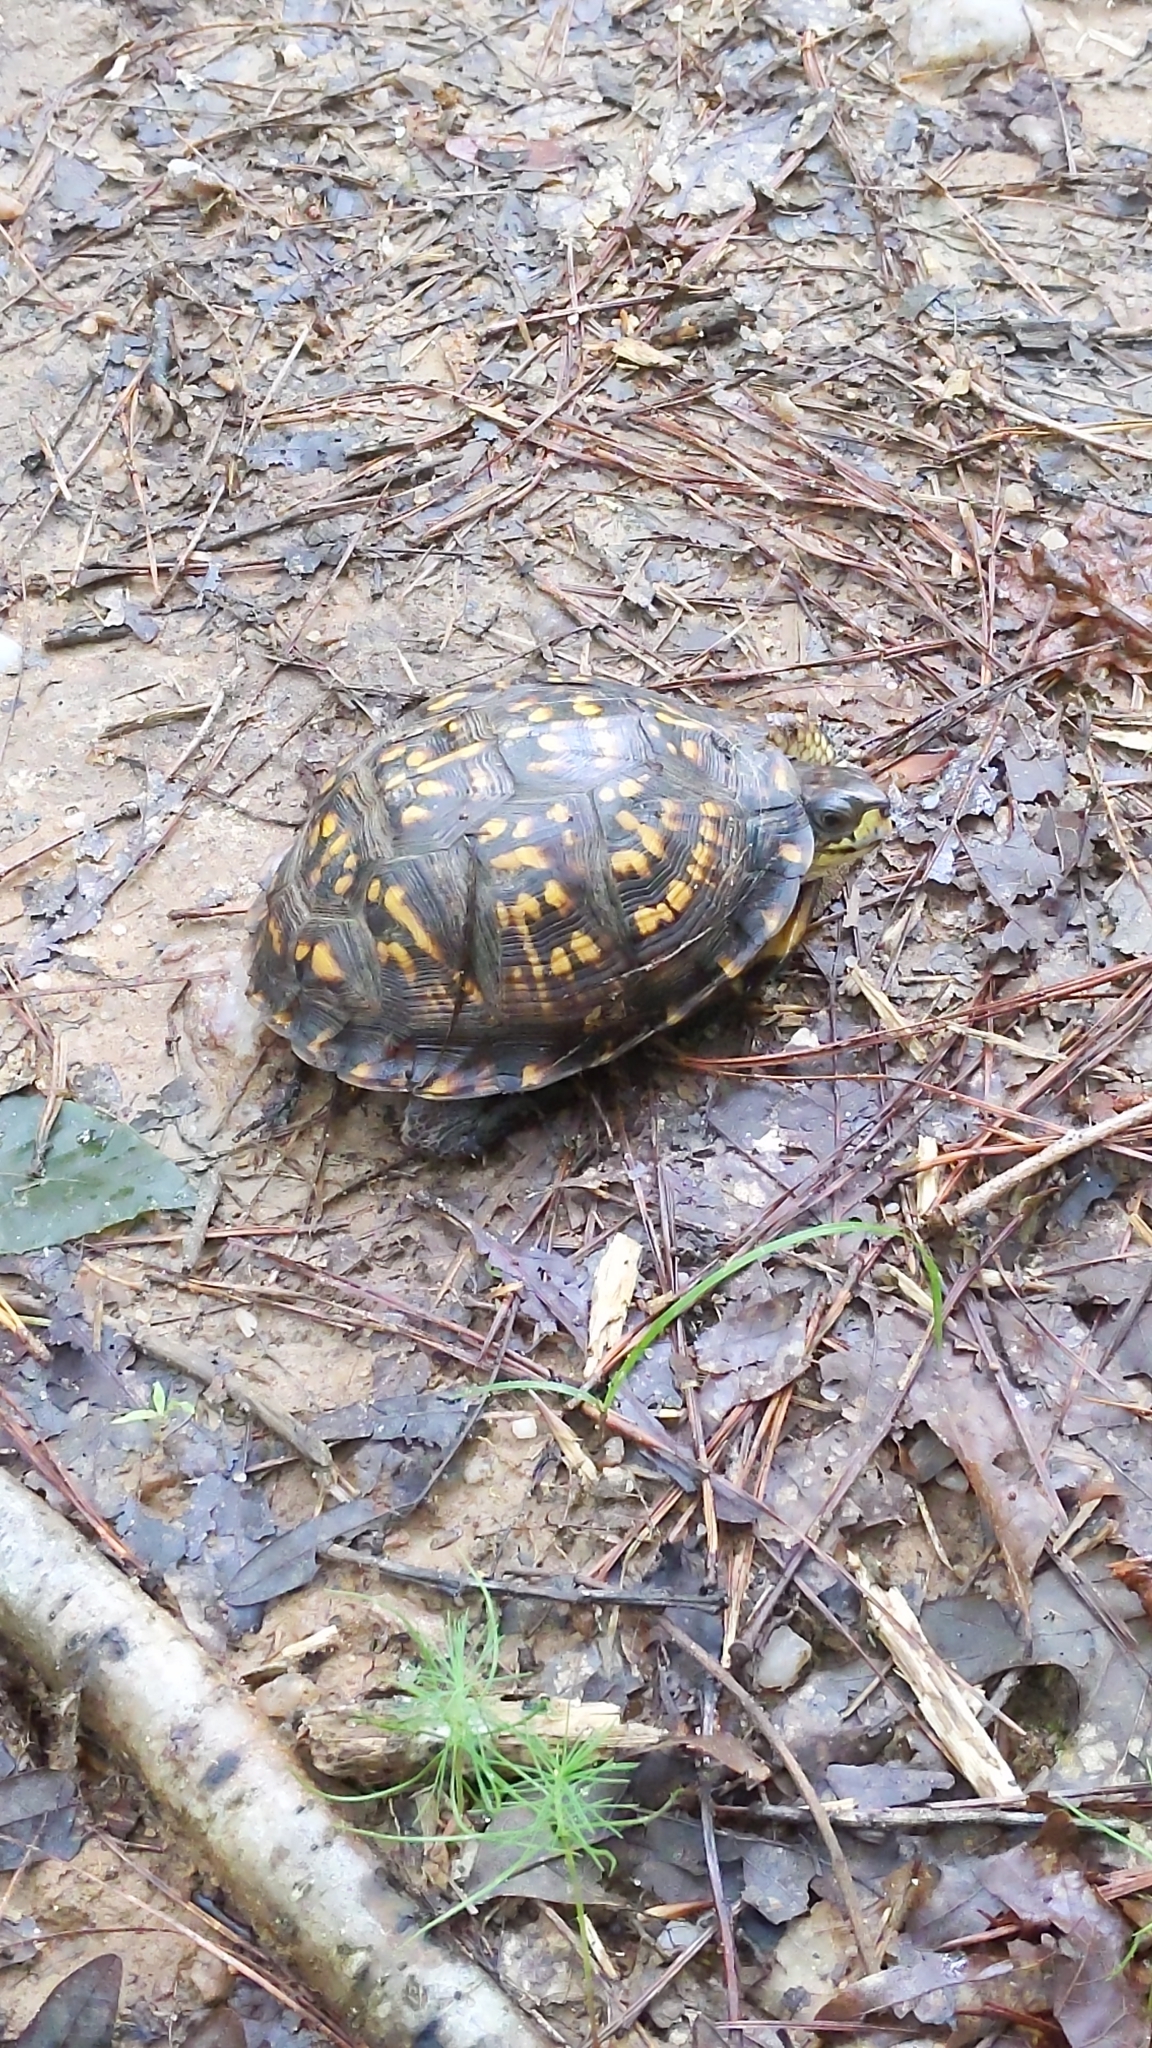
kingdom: Animalia
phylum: Chordata
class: Testudines
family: Emydidae
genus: Terrapene
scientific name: Terrapene carolina
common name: Common box turtle
